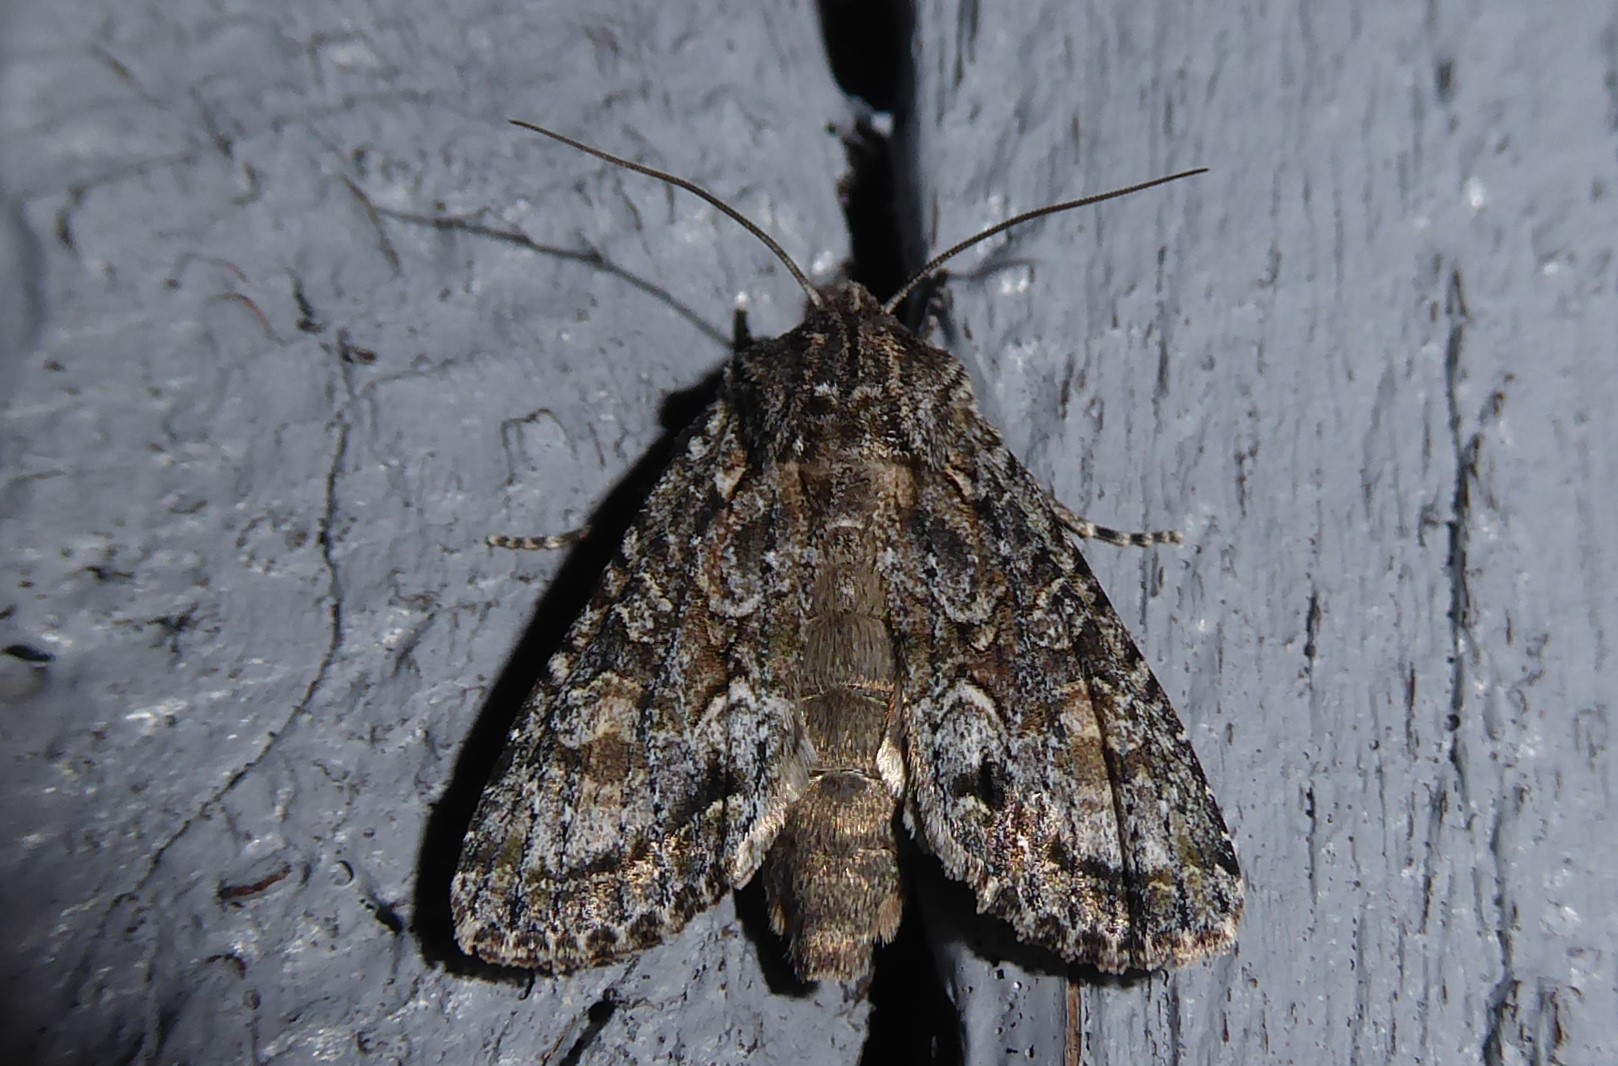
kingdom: Animalia
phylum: Arthropoda
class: Insecta
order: Lepidoptera
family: Noctuidae
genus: Ichneutica
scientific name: Ichneutica mutans
